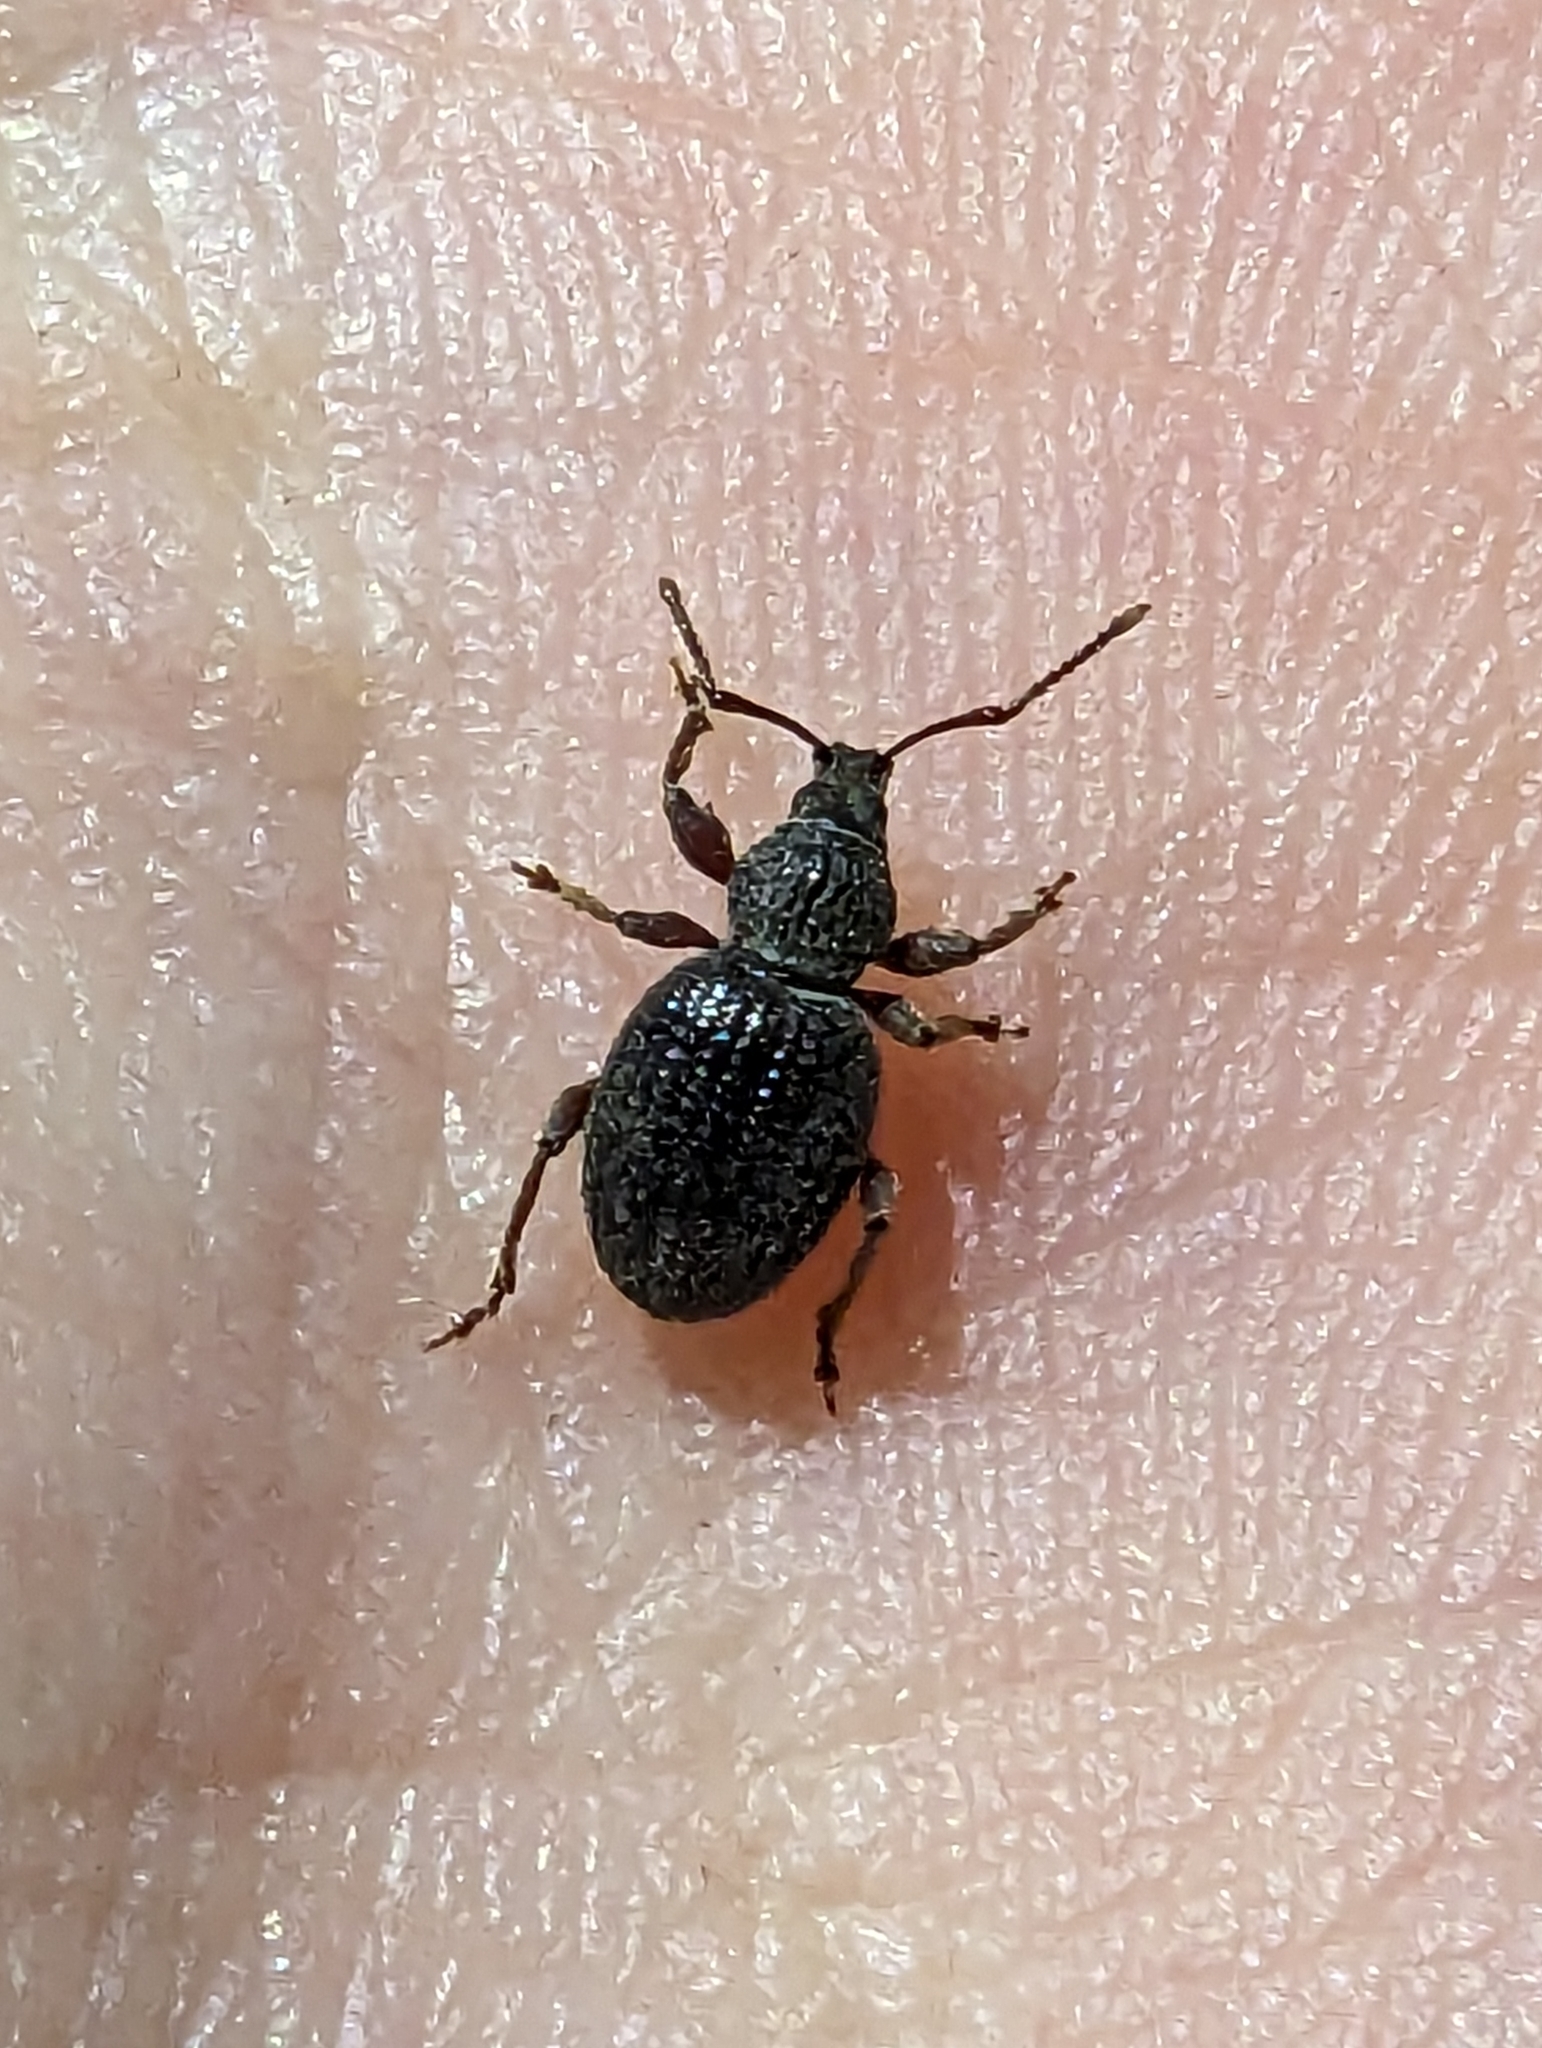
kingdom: Animalia
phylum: Arthropoda
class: Insecta
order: Coleoptera
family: Curculionidae
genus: Otiorhynchus
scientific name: Otiorhynchus ovatus
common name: Strawberry root weevil
